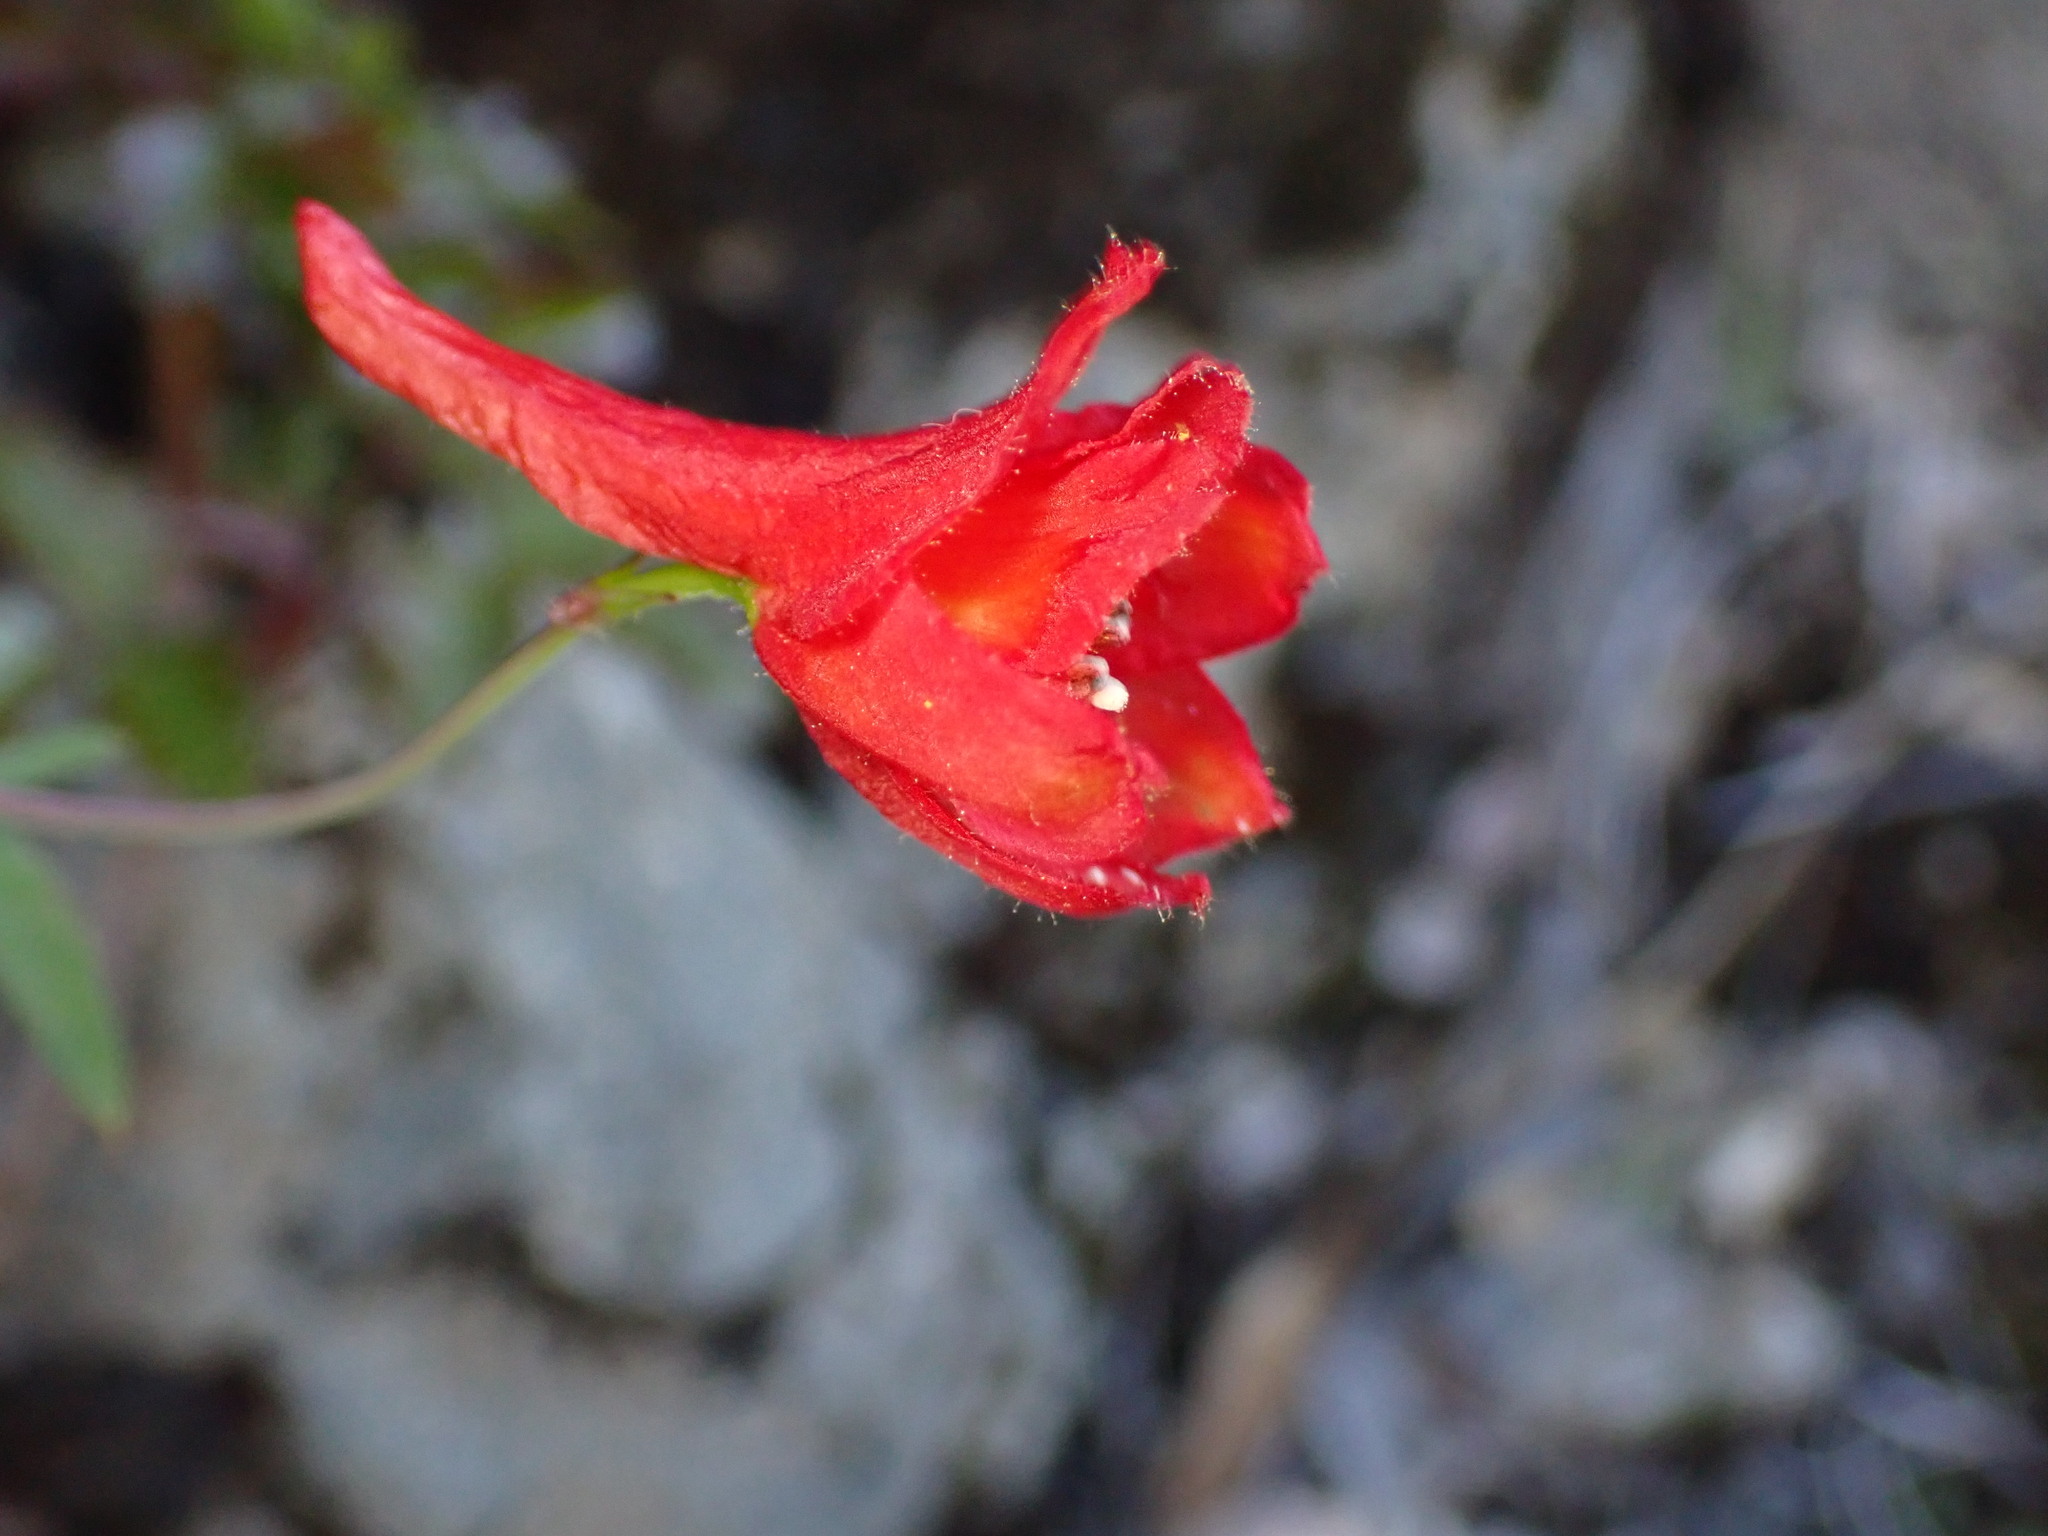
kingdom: Plantae
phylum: Tracheophyta
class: Magnoliopsida
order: Ranunculales
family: Ranunculaceae
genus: Delphinium
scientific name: Delphinium nudicaule
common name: Red larkspur
